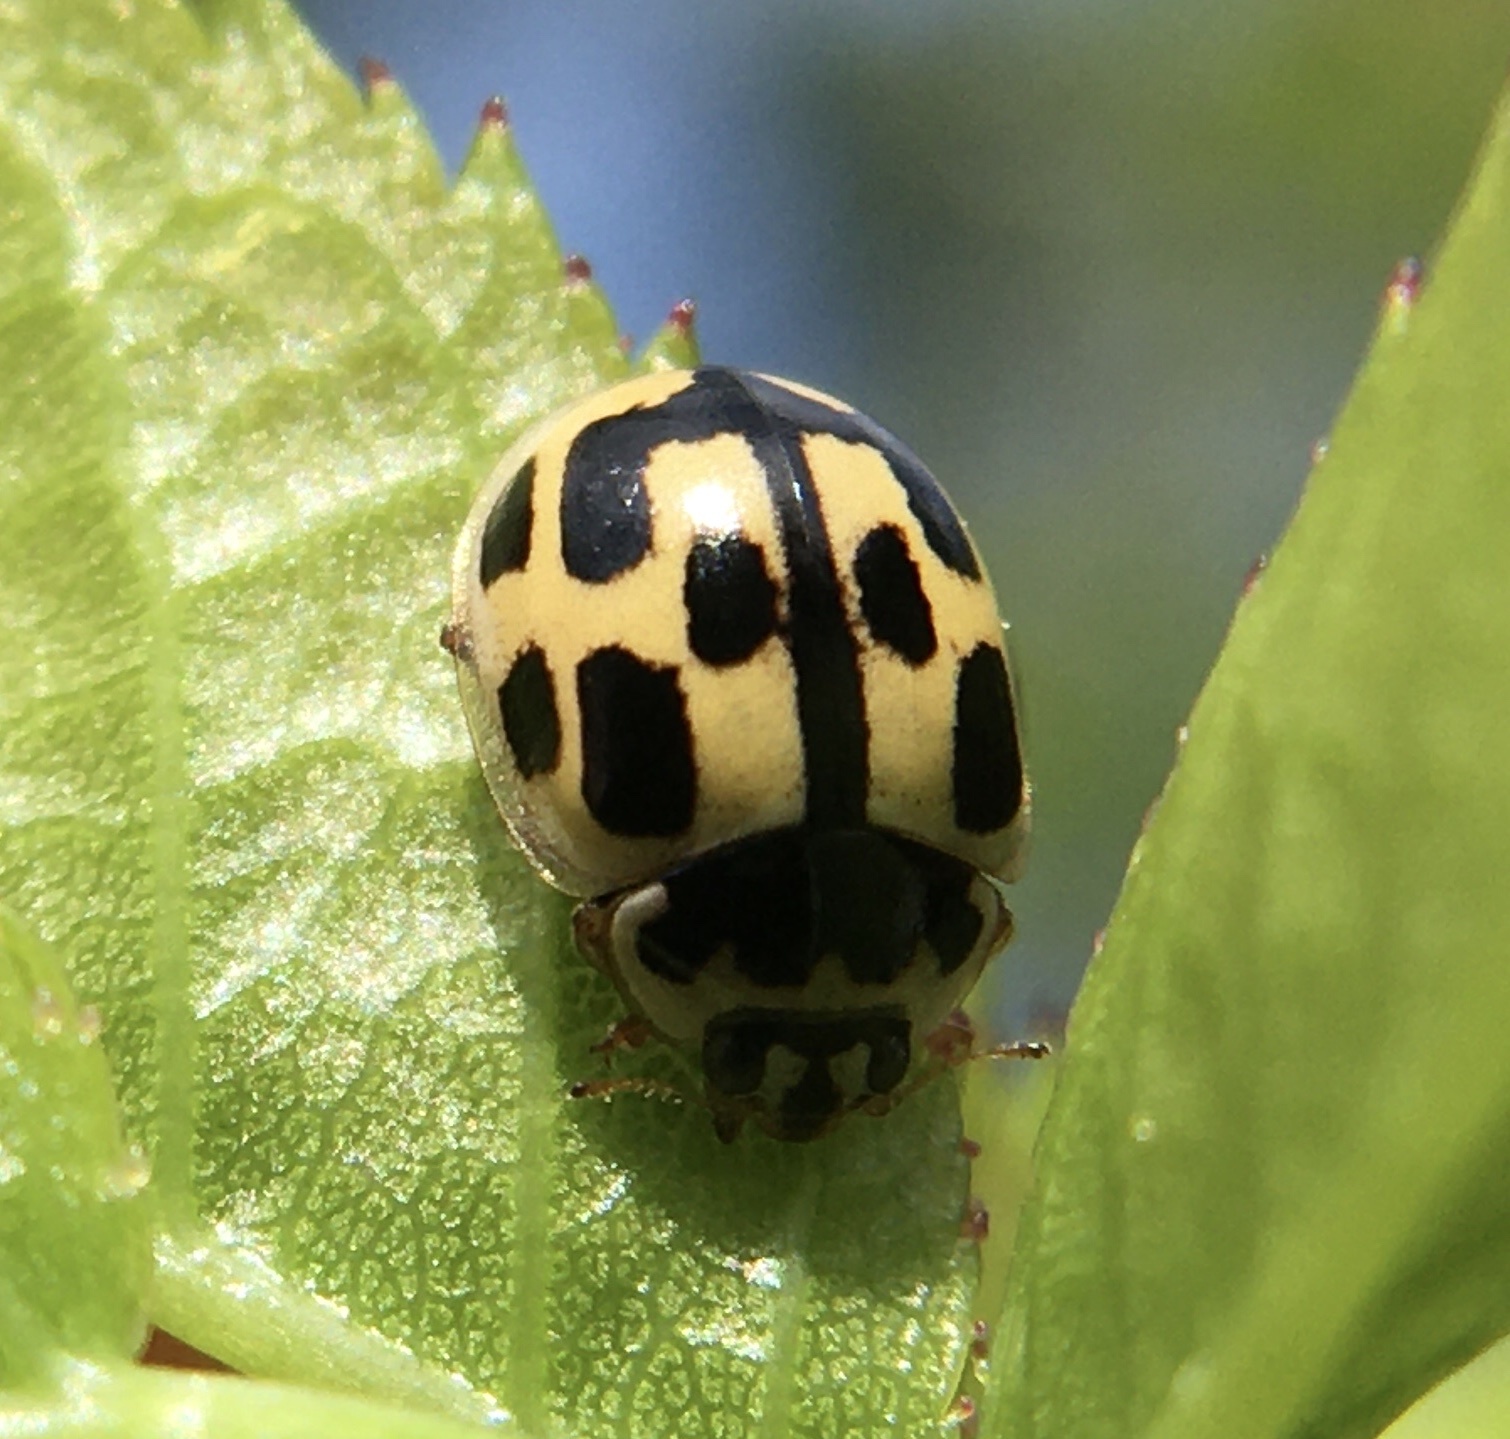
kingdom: Animalia
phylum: Arthropoda
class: Insecta
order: Coleoptera
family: Coccinellidae
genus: Propylaea
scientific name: Propylaea quatuordecimpunctata
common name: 14-spotted ladybird beetle
